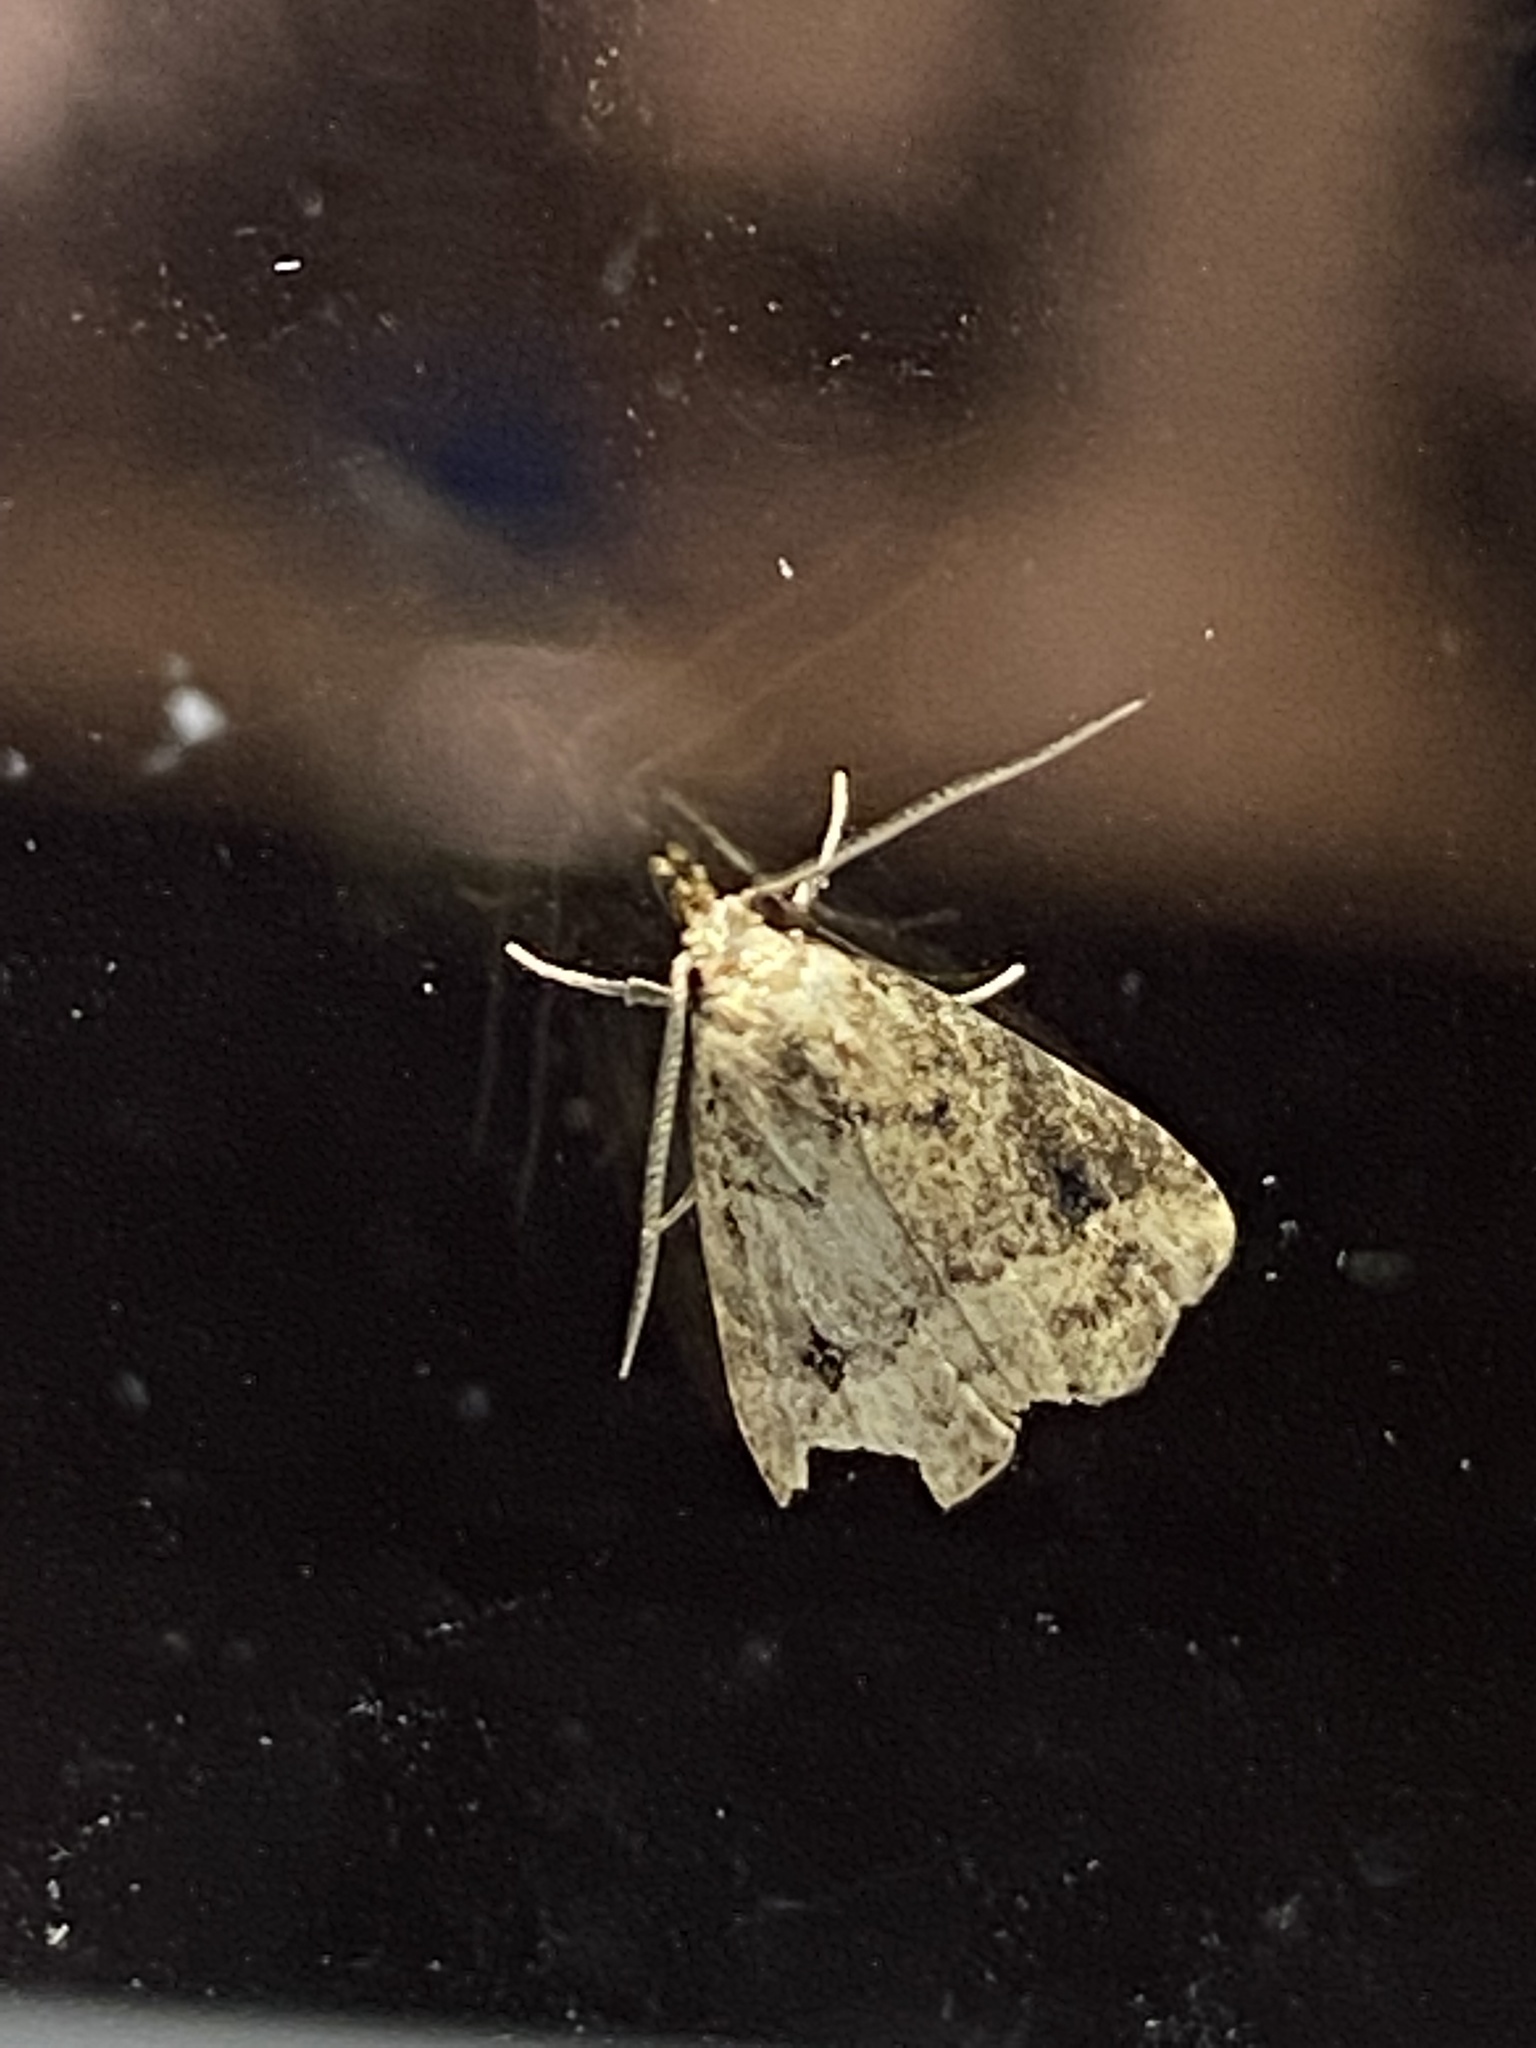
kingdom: Animalia
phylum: Arthropoda
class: Insecta
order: Lepidoptera
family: Erebidae
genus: Schrankia
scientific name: Schrankia
